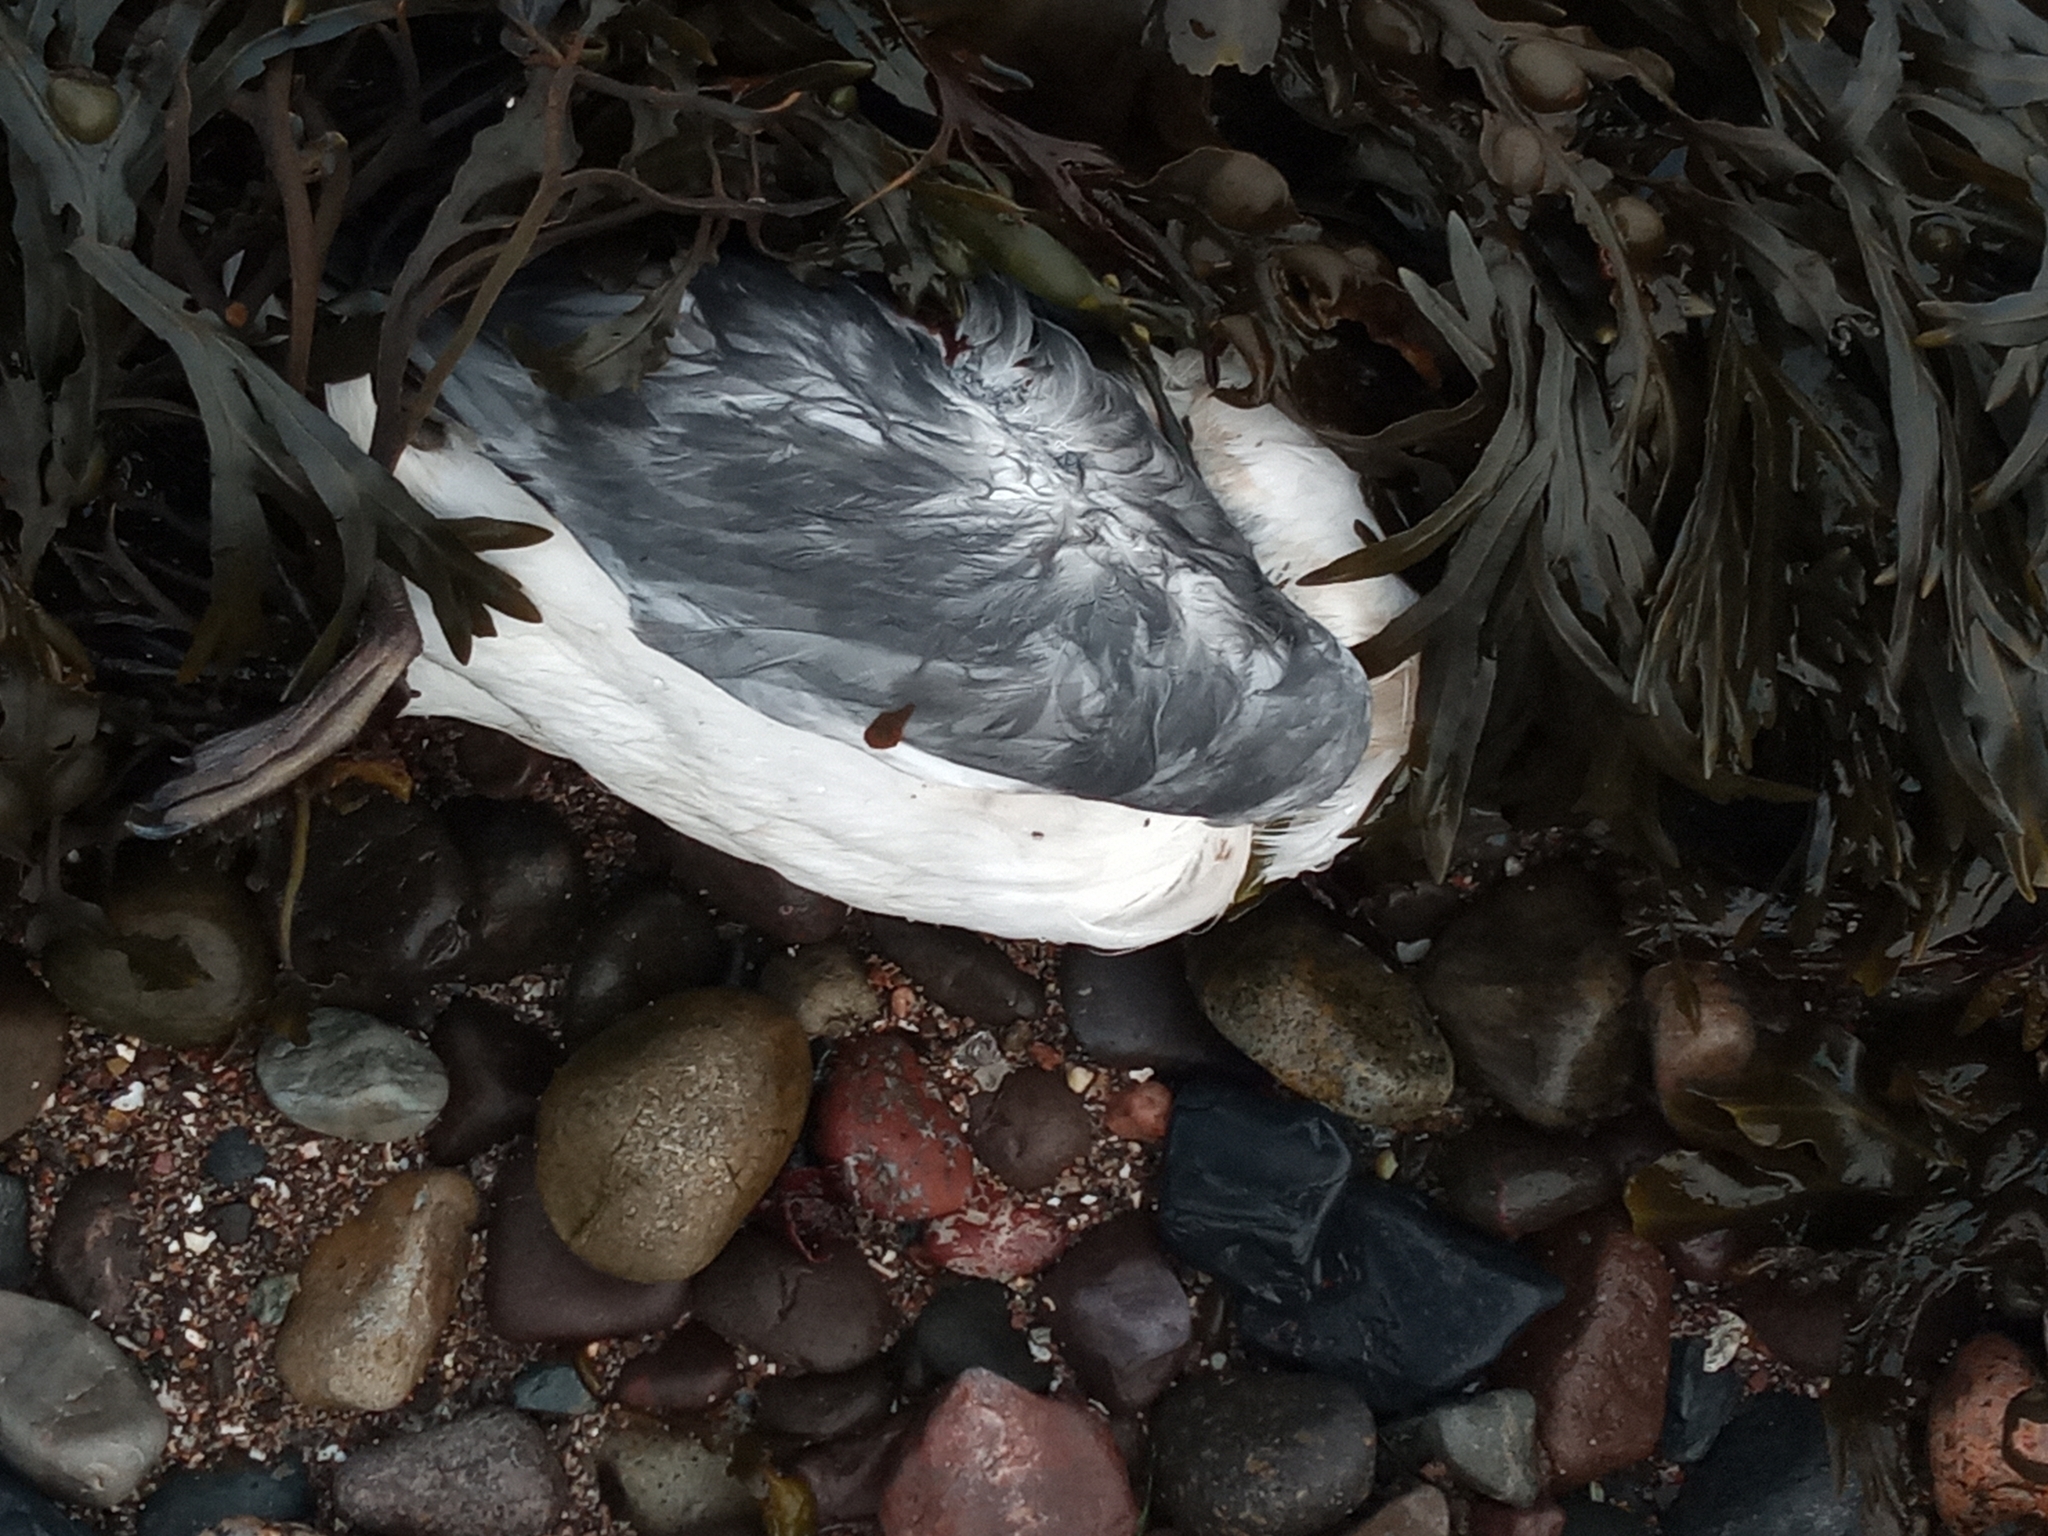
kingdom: Animalia
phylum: Chordata
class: Aves
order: Charadriiformes
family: Laridae
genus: Rissa
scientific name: Rissa tridactyla
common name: Black-legged kittiwake
